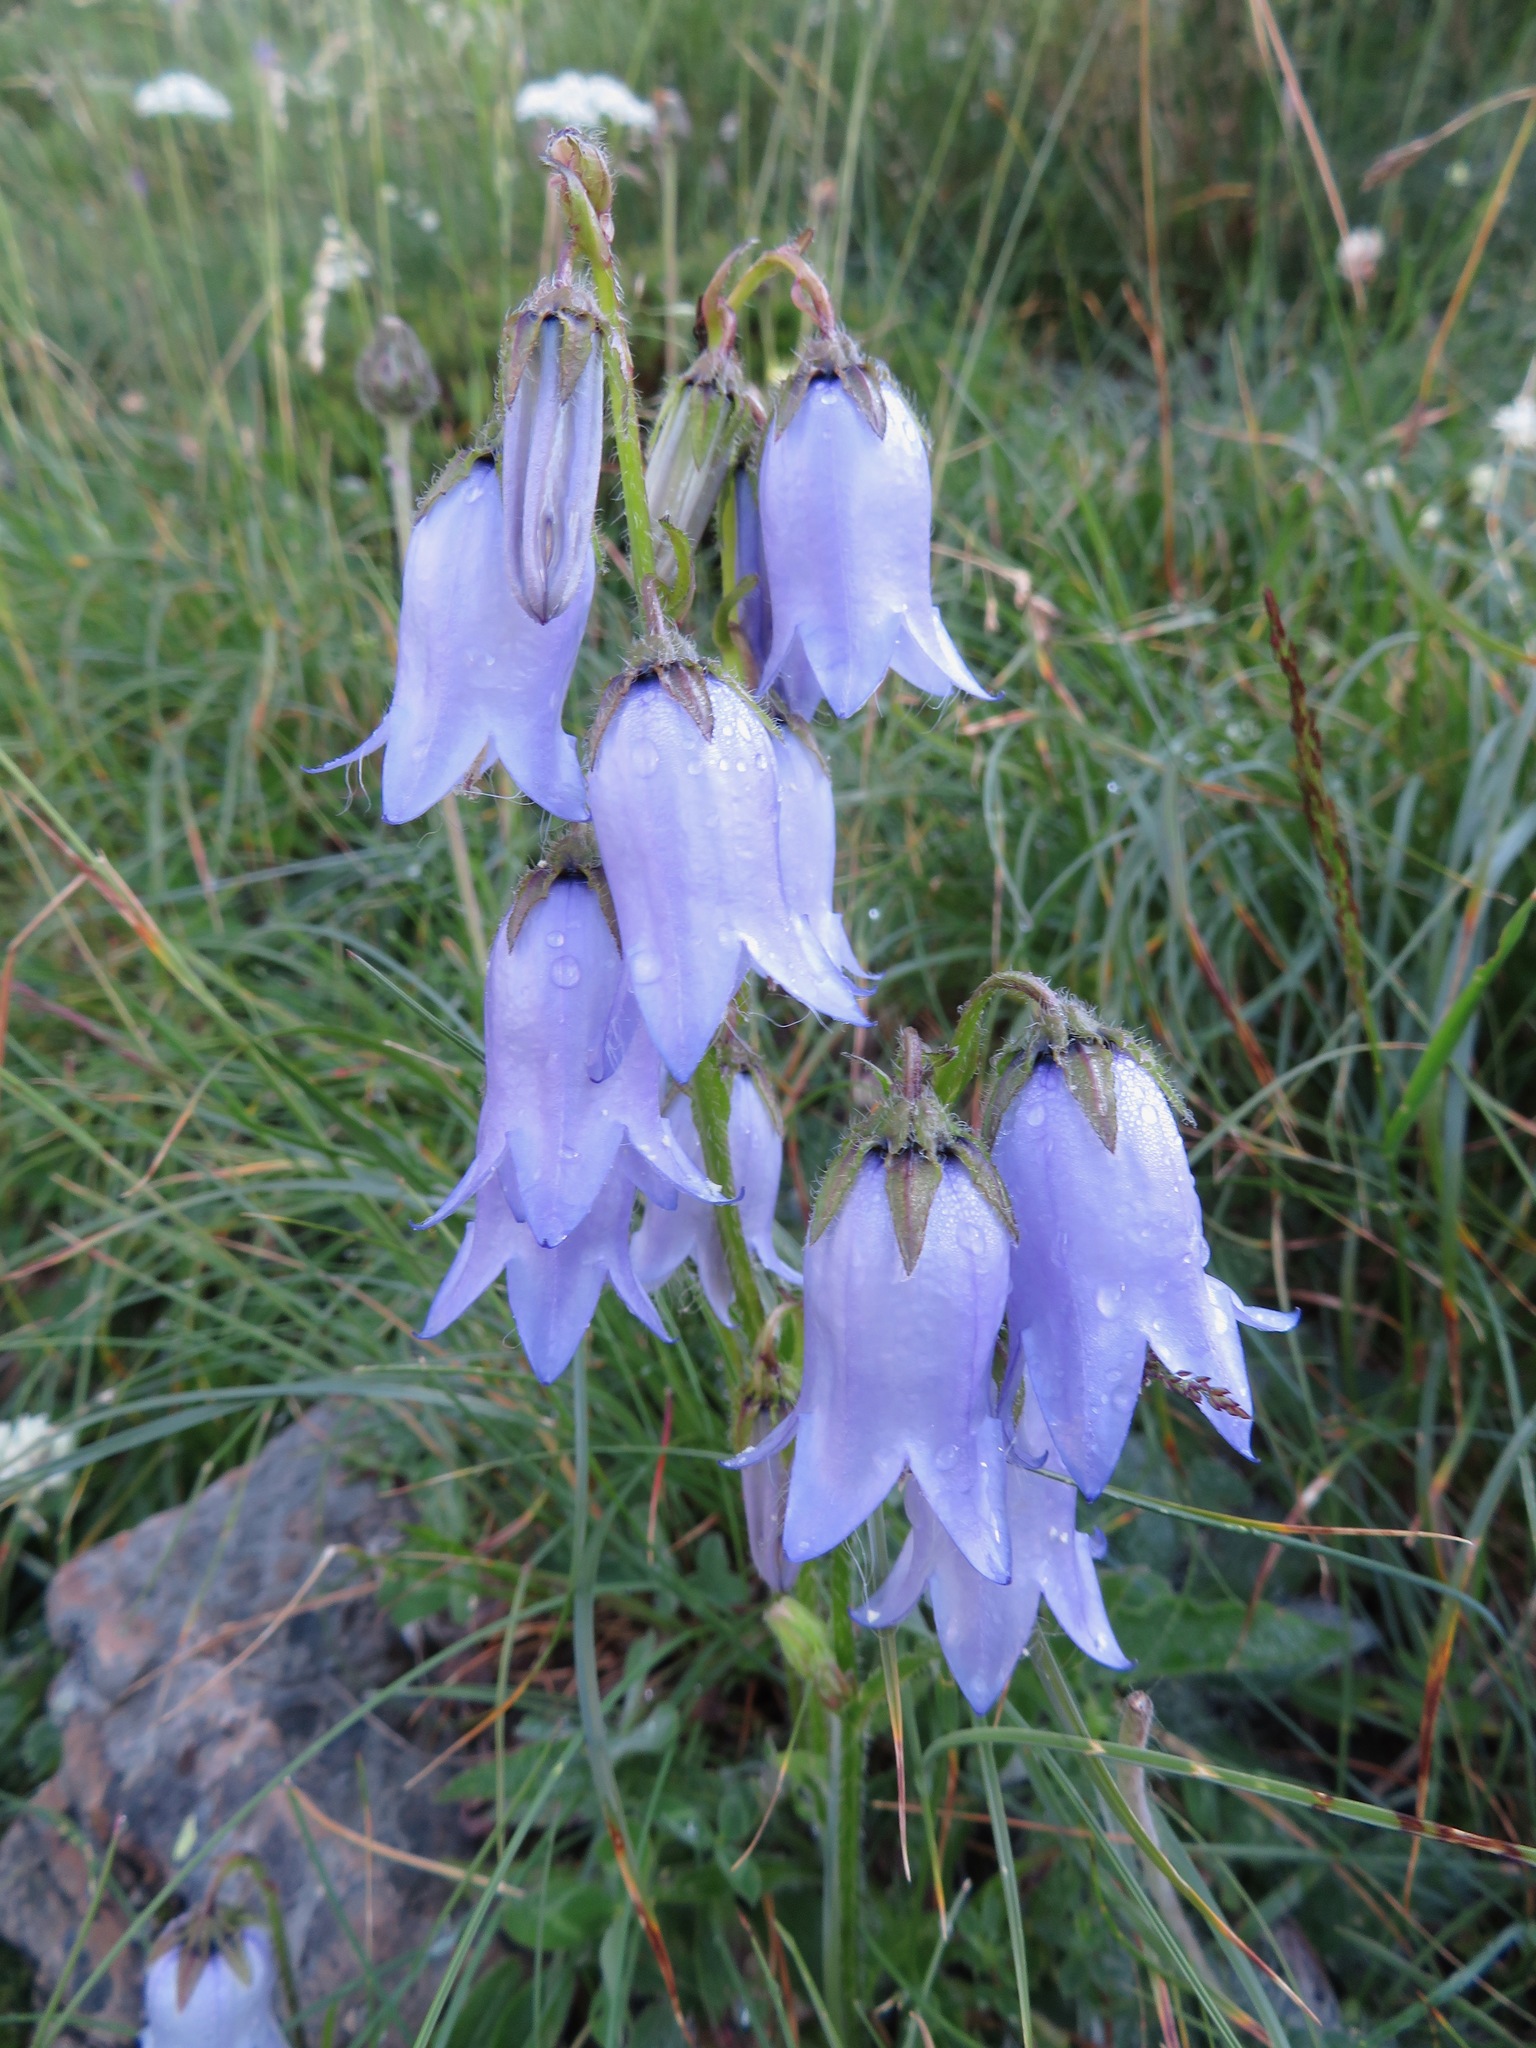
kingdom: Plantae
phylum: Tracheophyta
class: Magnoliopsida
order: Asterales
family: Campanulaceae
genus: Campanula
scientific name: Campanula barbata
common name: Bearded bellflower
